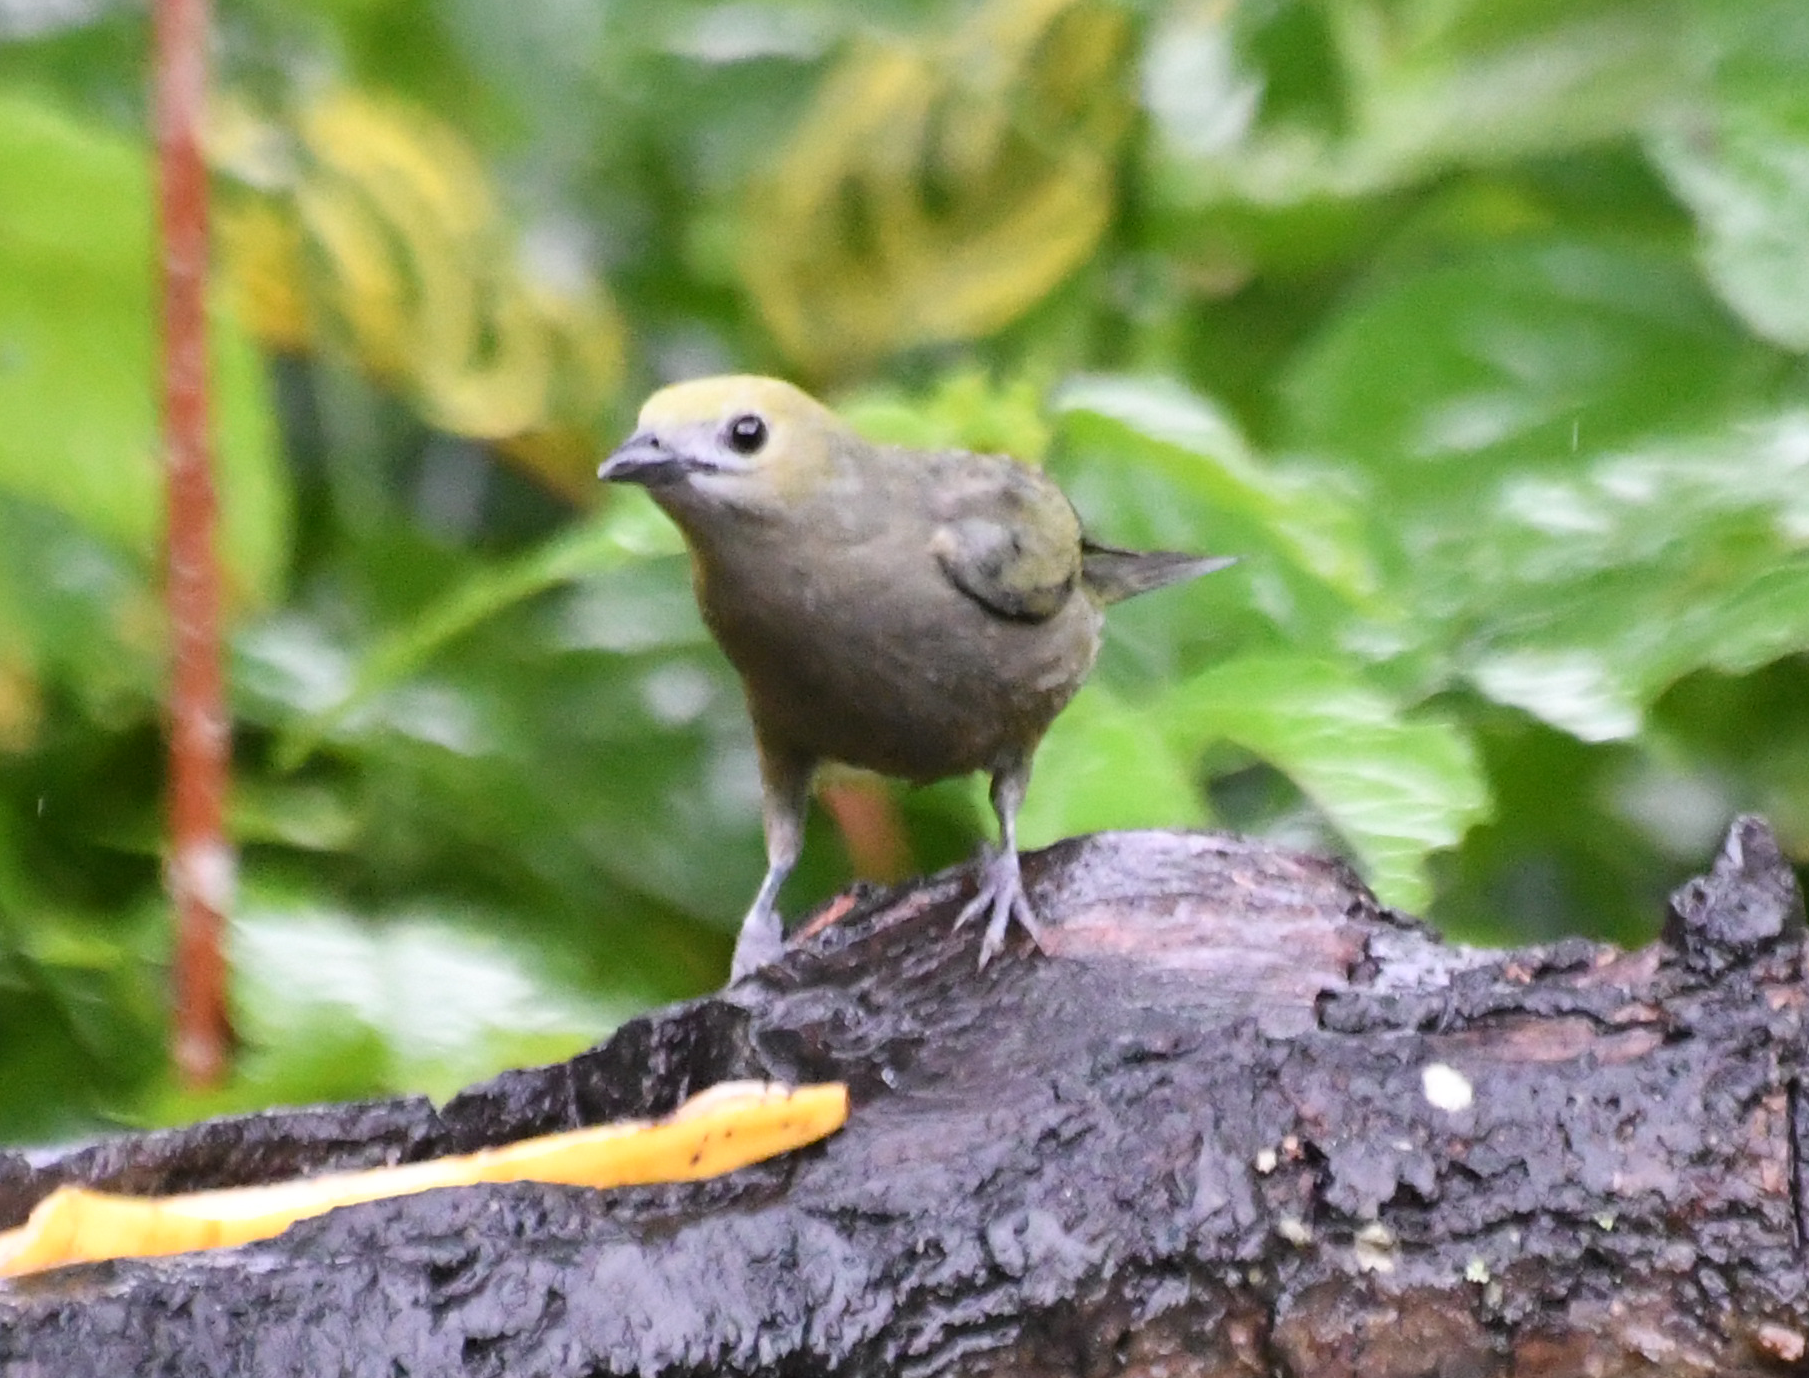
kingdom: Animalia
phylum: Chordata
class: Aves
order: Passeriformes
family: Thraupidae
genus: Thraupis
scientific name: Thraupis palmarum
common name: Palm tanager
